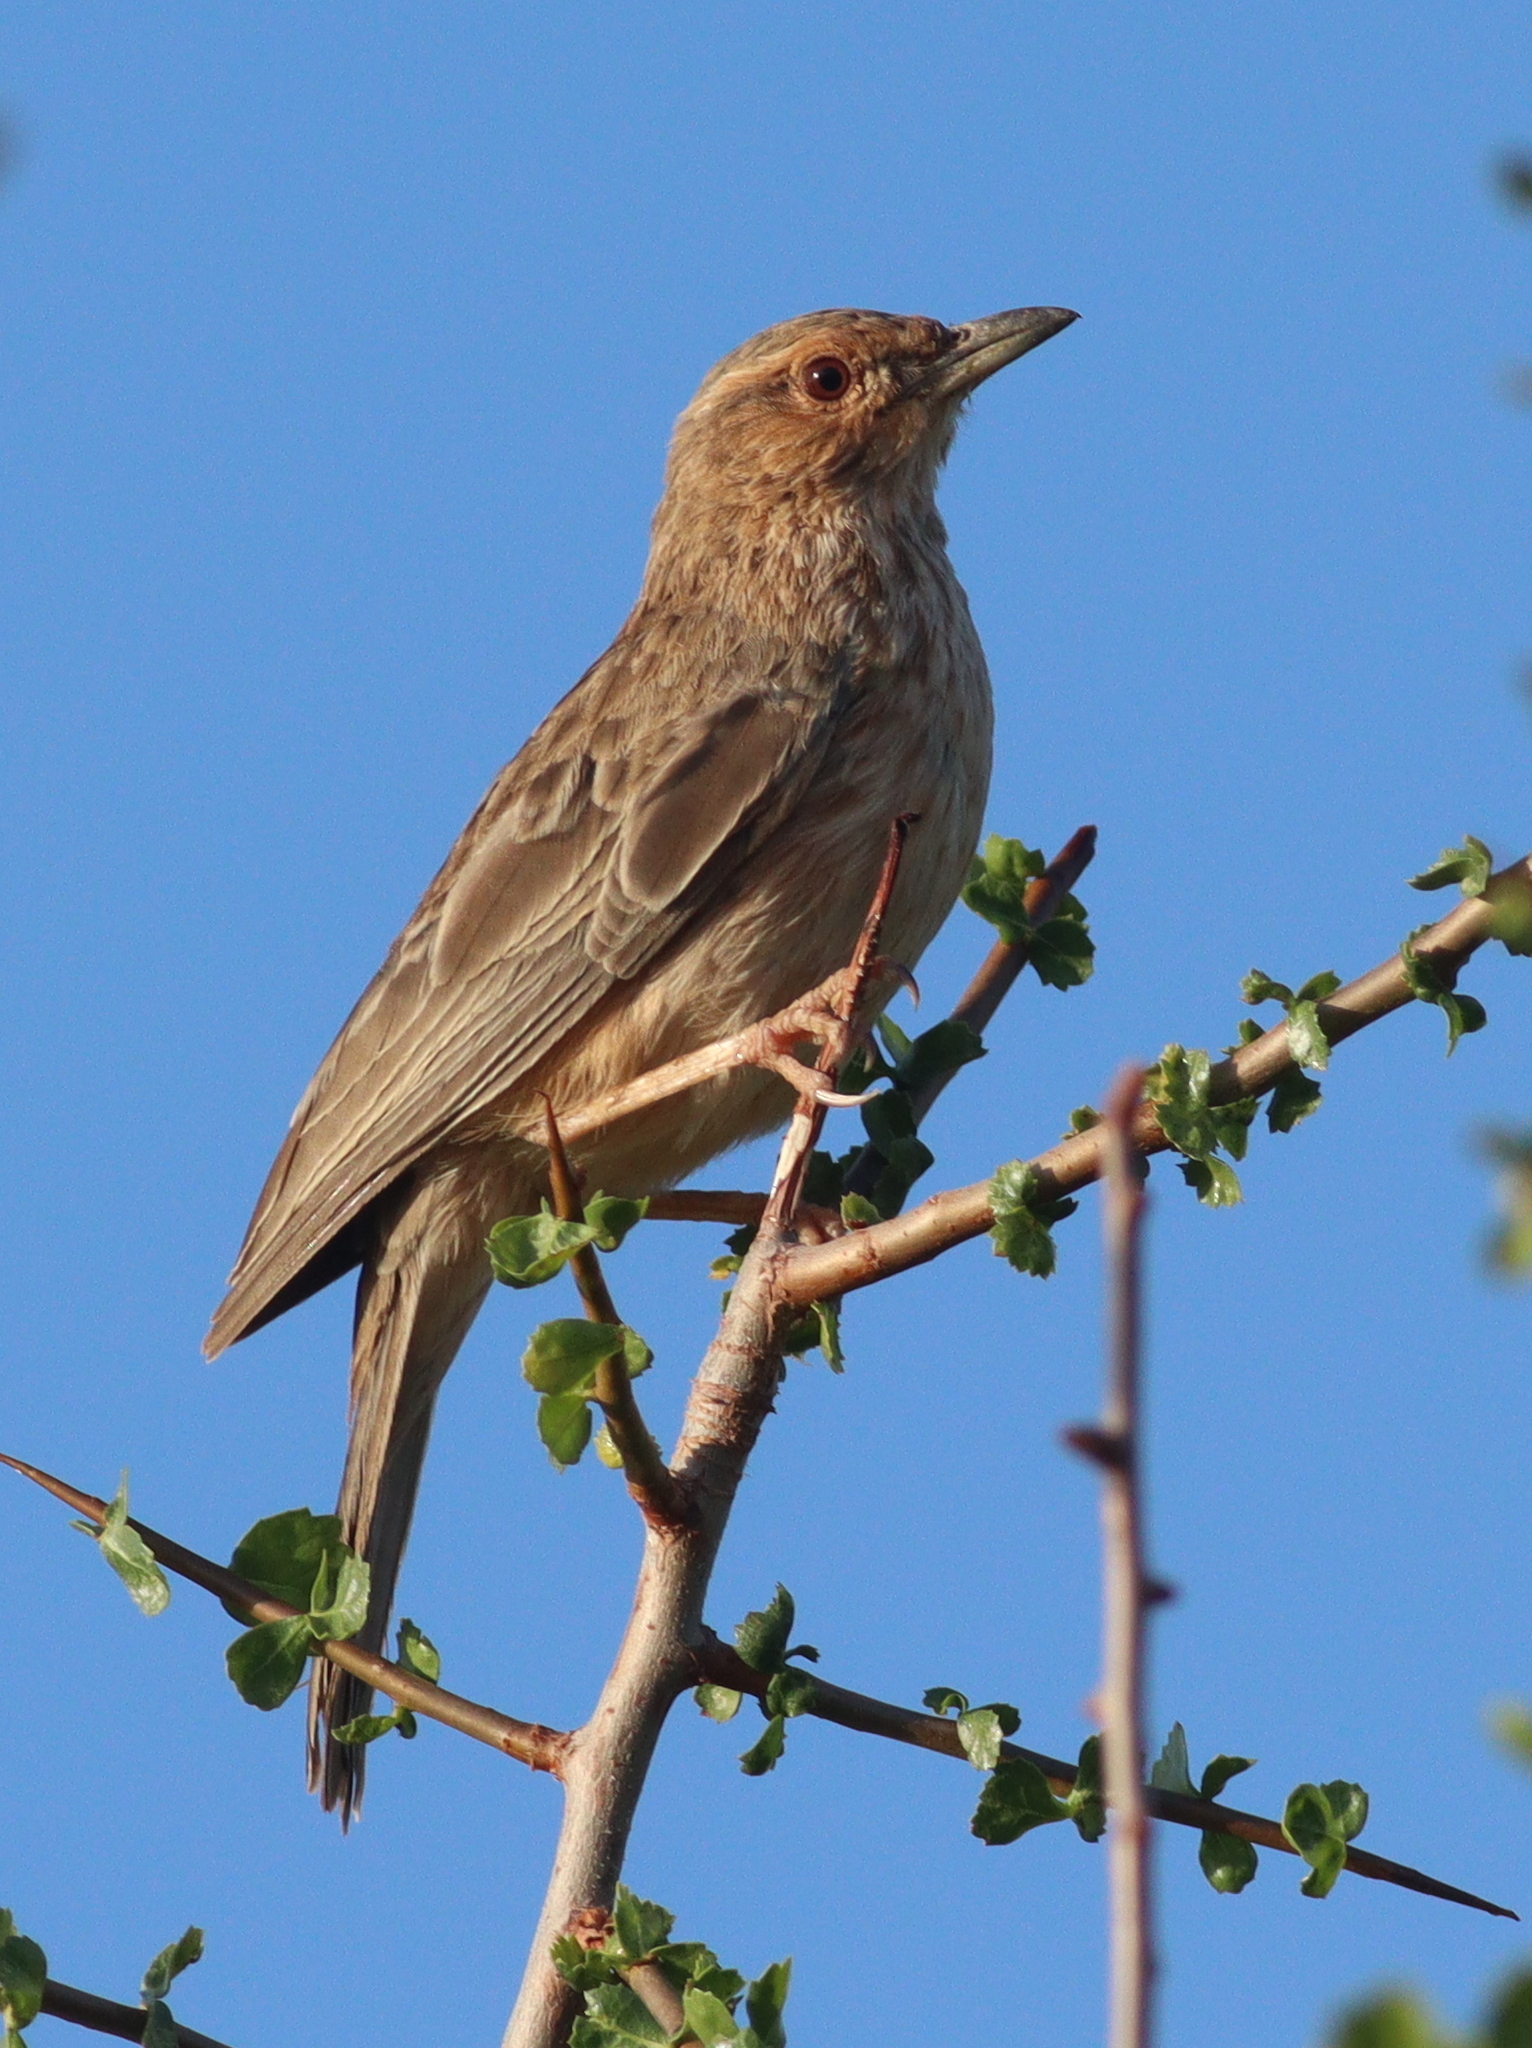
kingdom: Animalia
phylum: Chordata
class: Aves
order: Passeriformes
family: Alaudidae
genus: Calendulauda
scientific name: Calendulauda poecilosterna
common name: Pink-breasted lark
